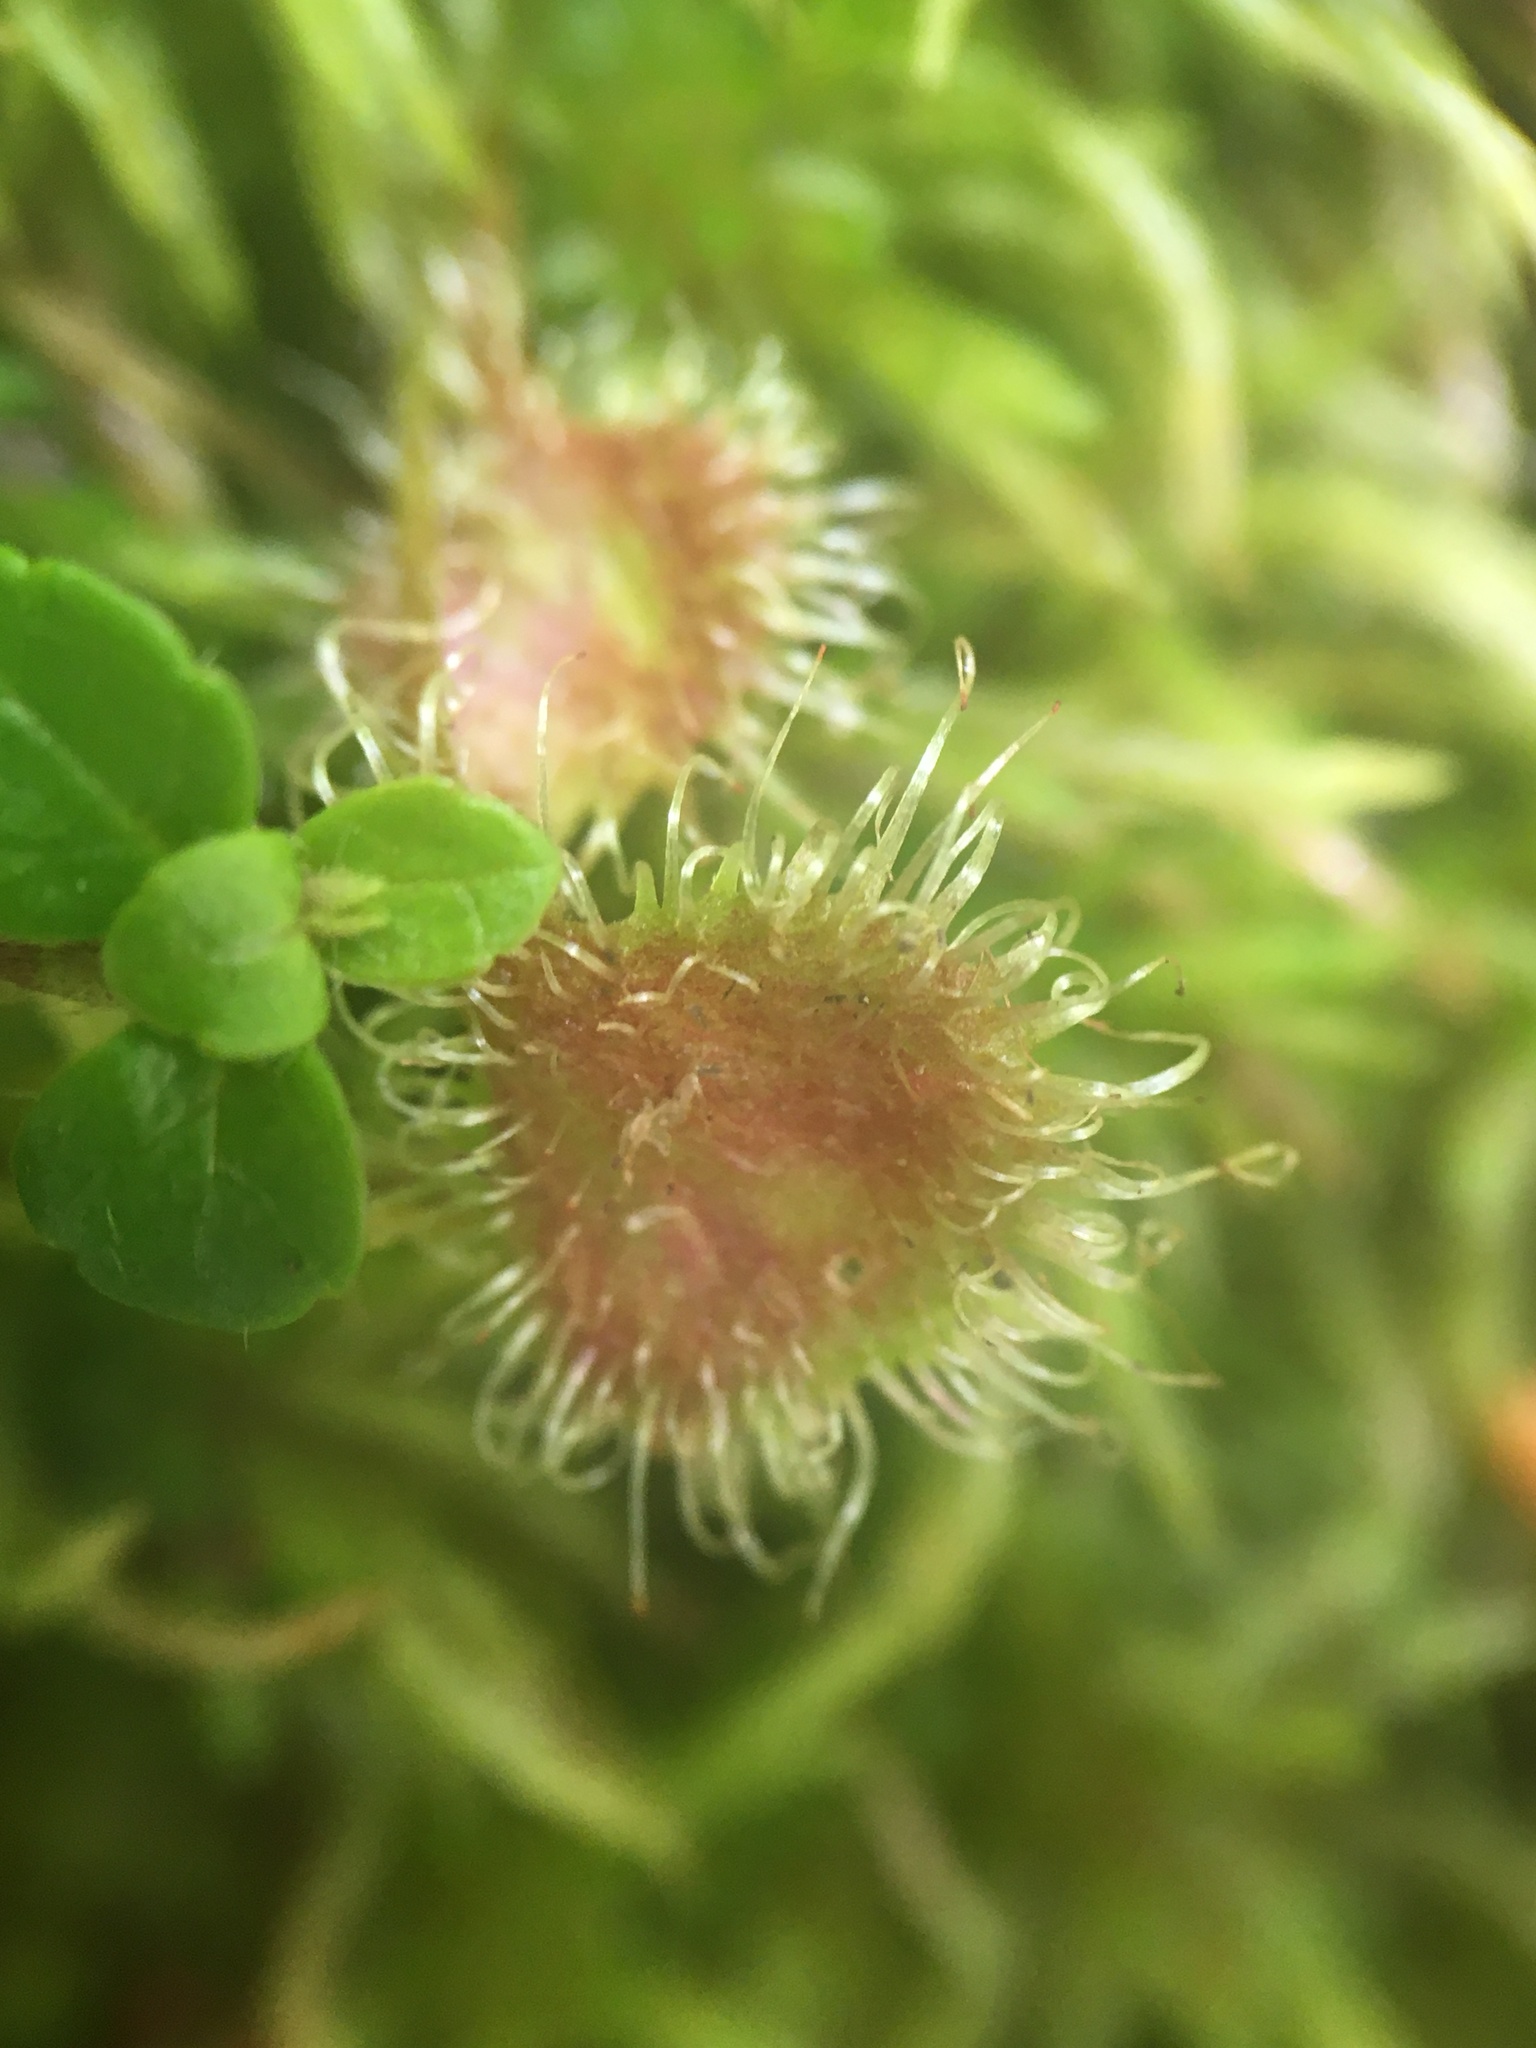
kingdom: Plantae
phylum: Tracheophyta
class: Magnoliopsida
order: Caryophyllales
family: Droseraceae
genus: Drosera
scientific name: Drosera rotundifolia
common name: Round-leaved sundew
